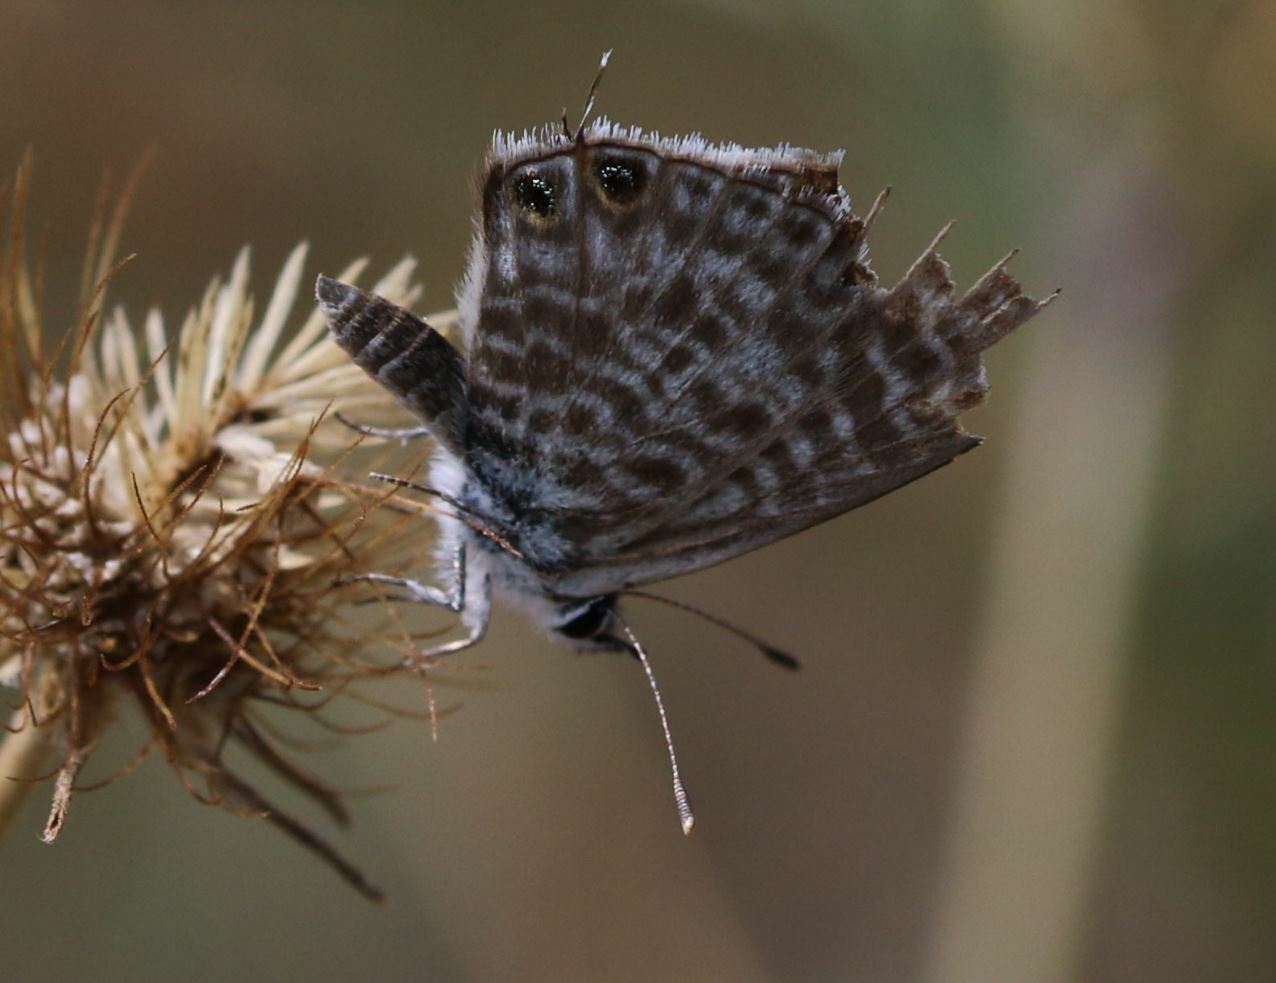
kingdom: Animalia
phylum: Arthropoda
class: Insecta
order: Lepidoptera
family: Lycaenidae
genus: Leptotes
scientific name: Leptotes pirithous
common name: Lang's short-tailed blue
